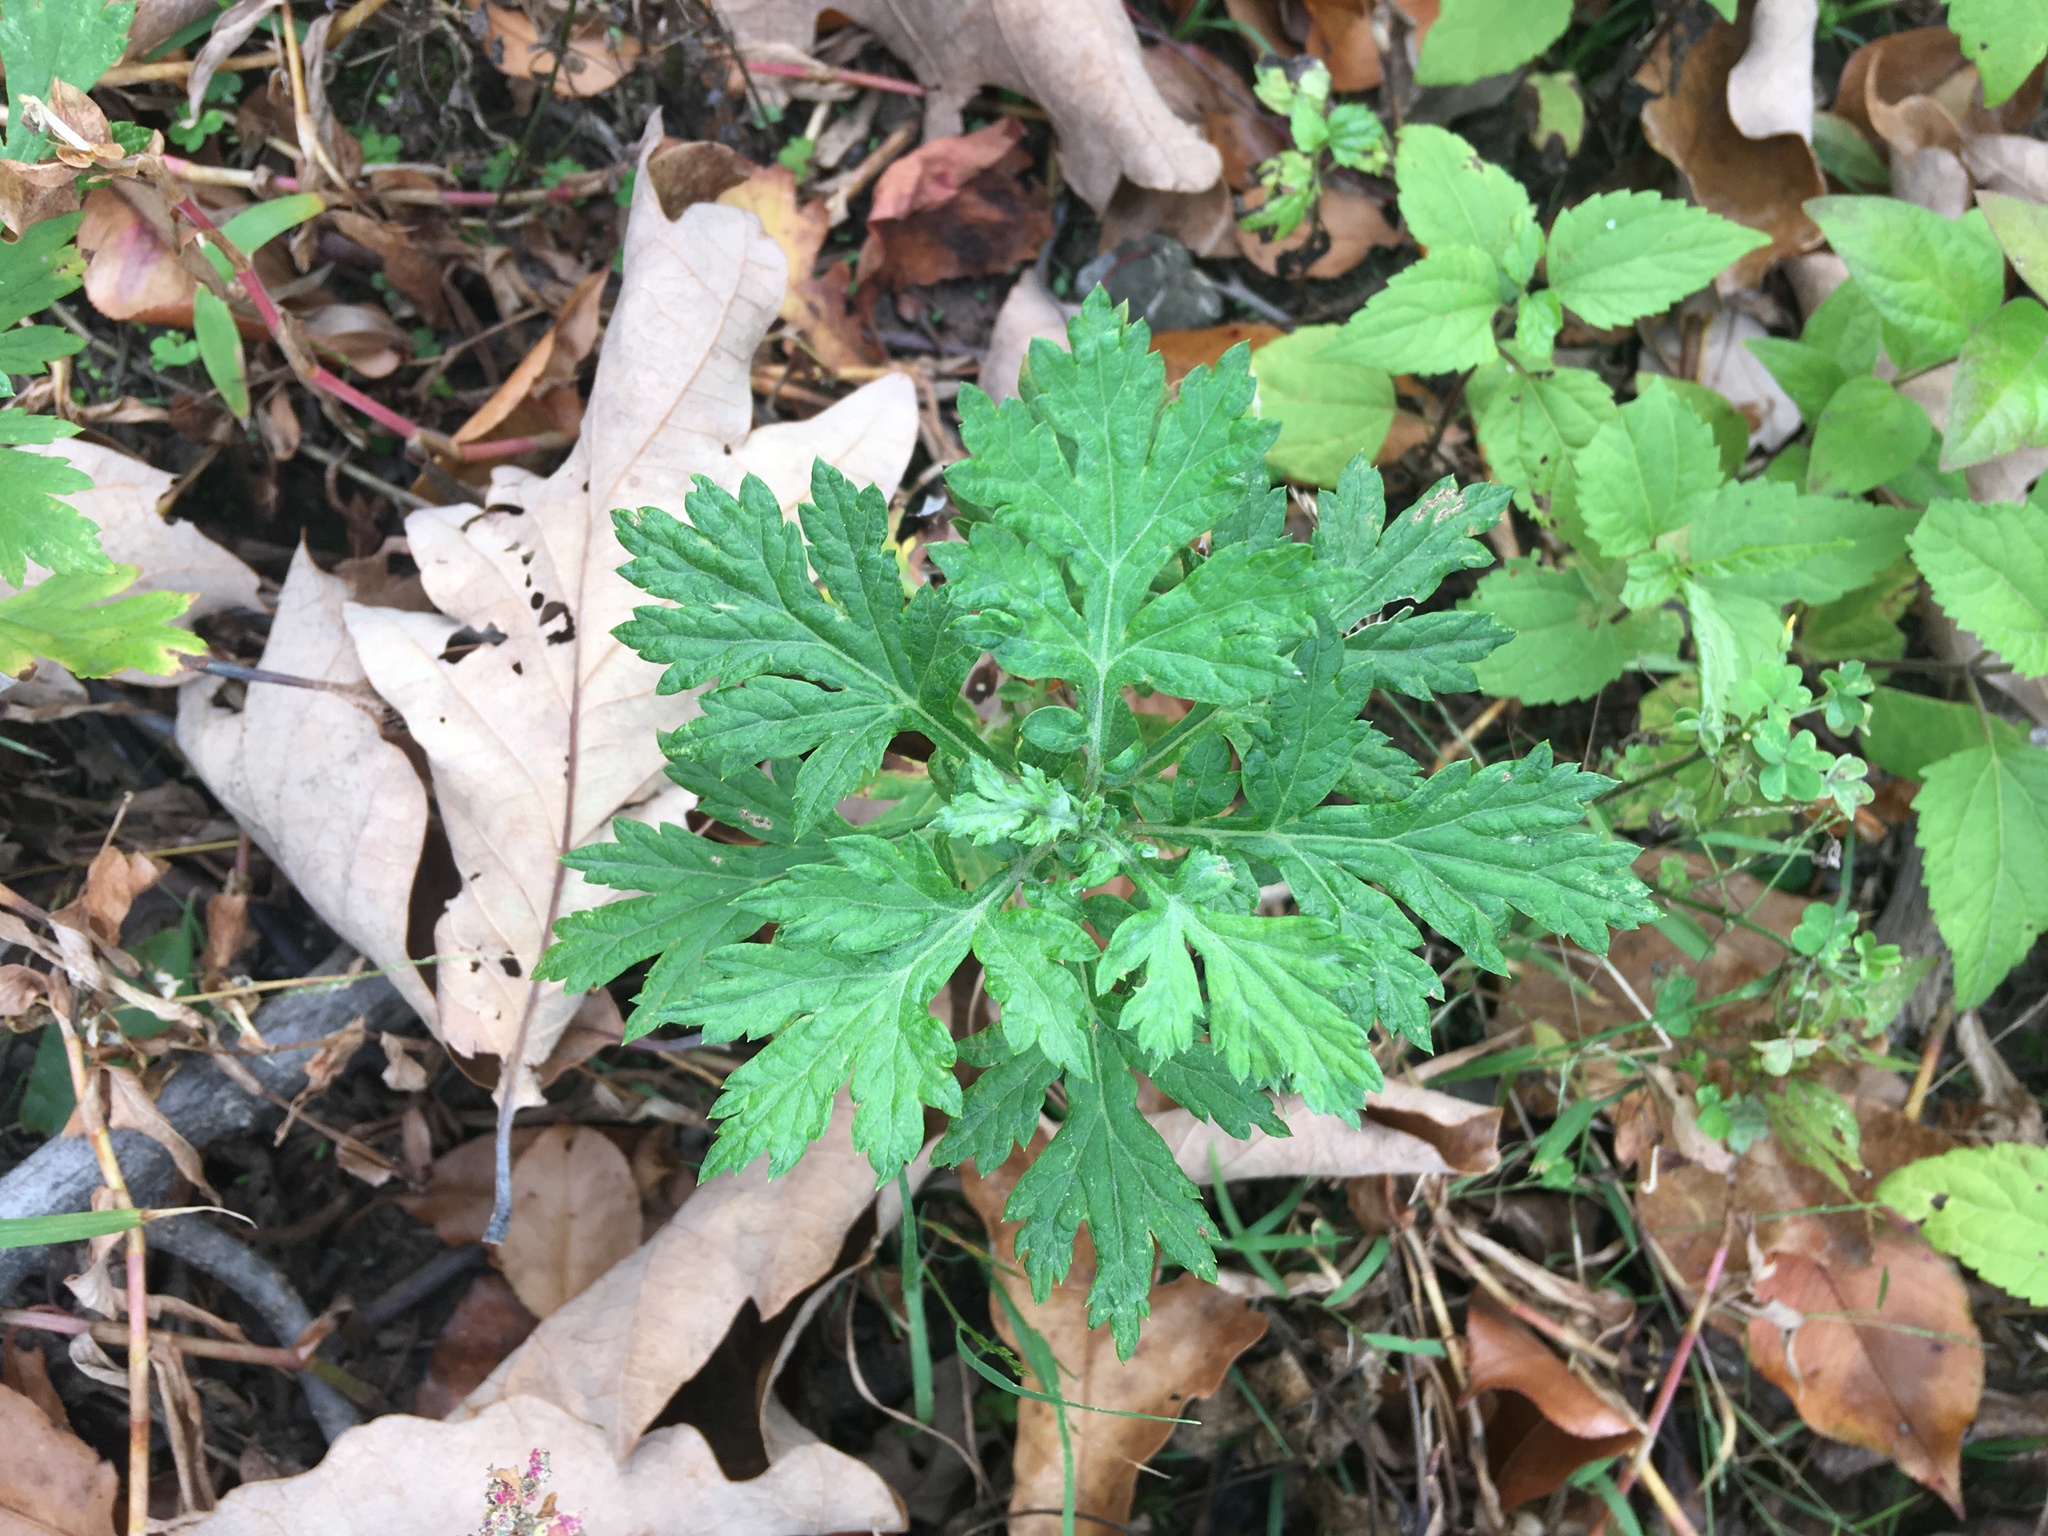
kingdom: Plantae
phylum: Tracheophyta
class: Magnoliopsida
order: Asterales
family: Asteraceae
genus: Artemisia
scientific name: Artemisia vulgaris
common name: Mugwort
